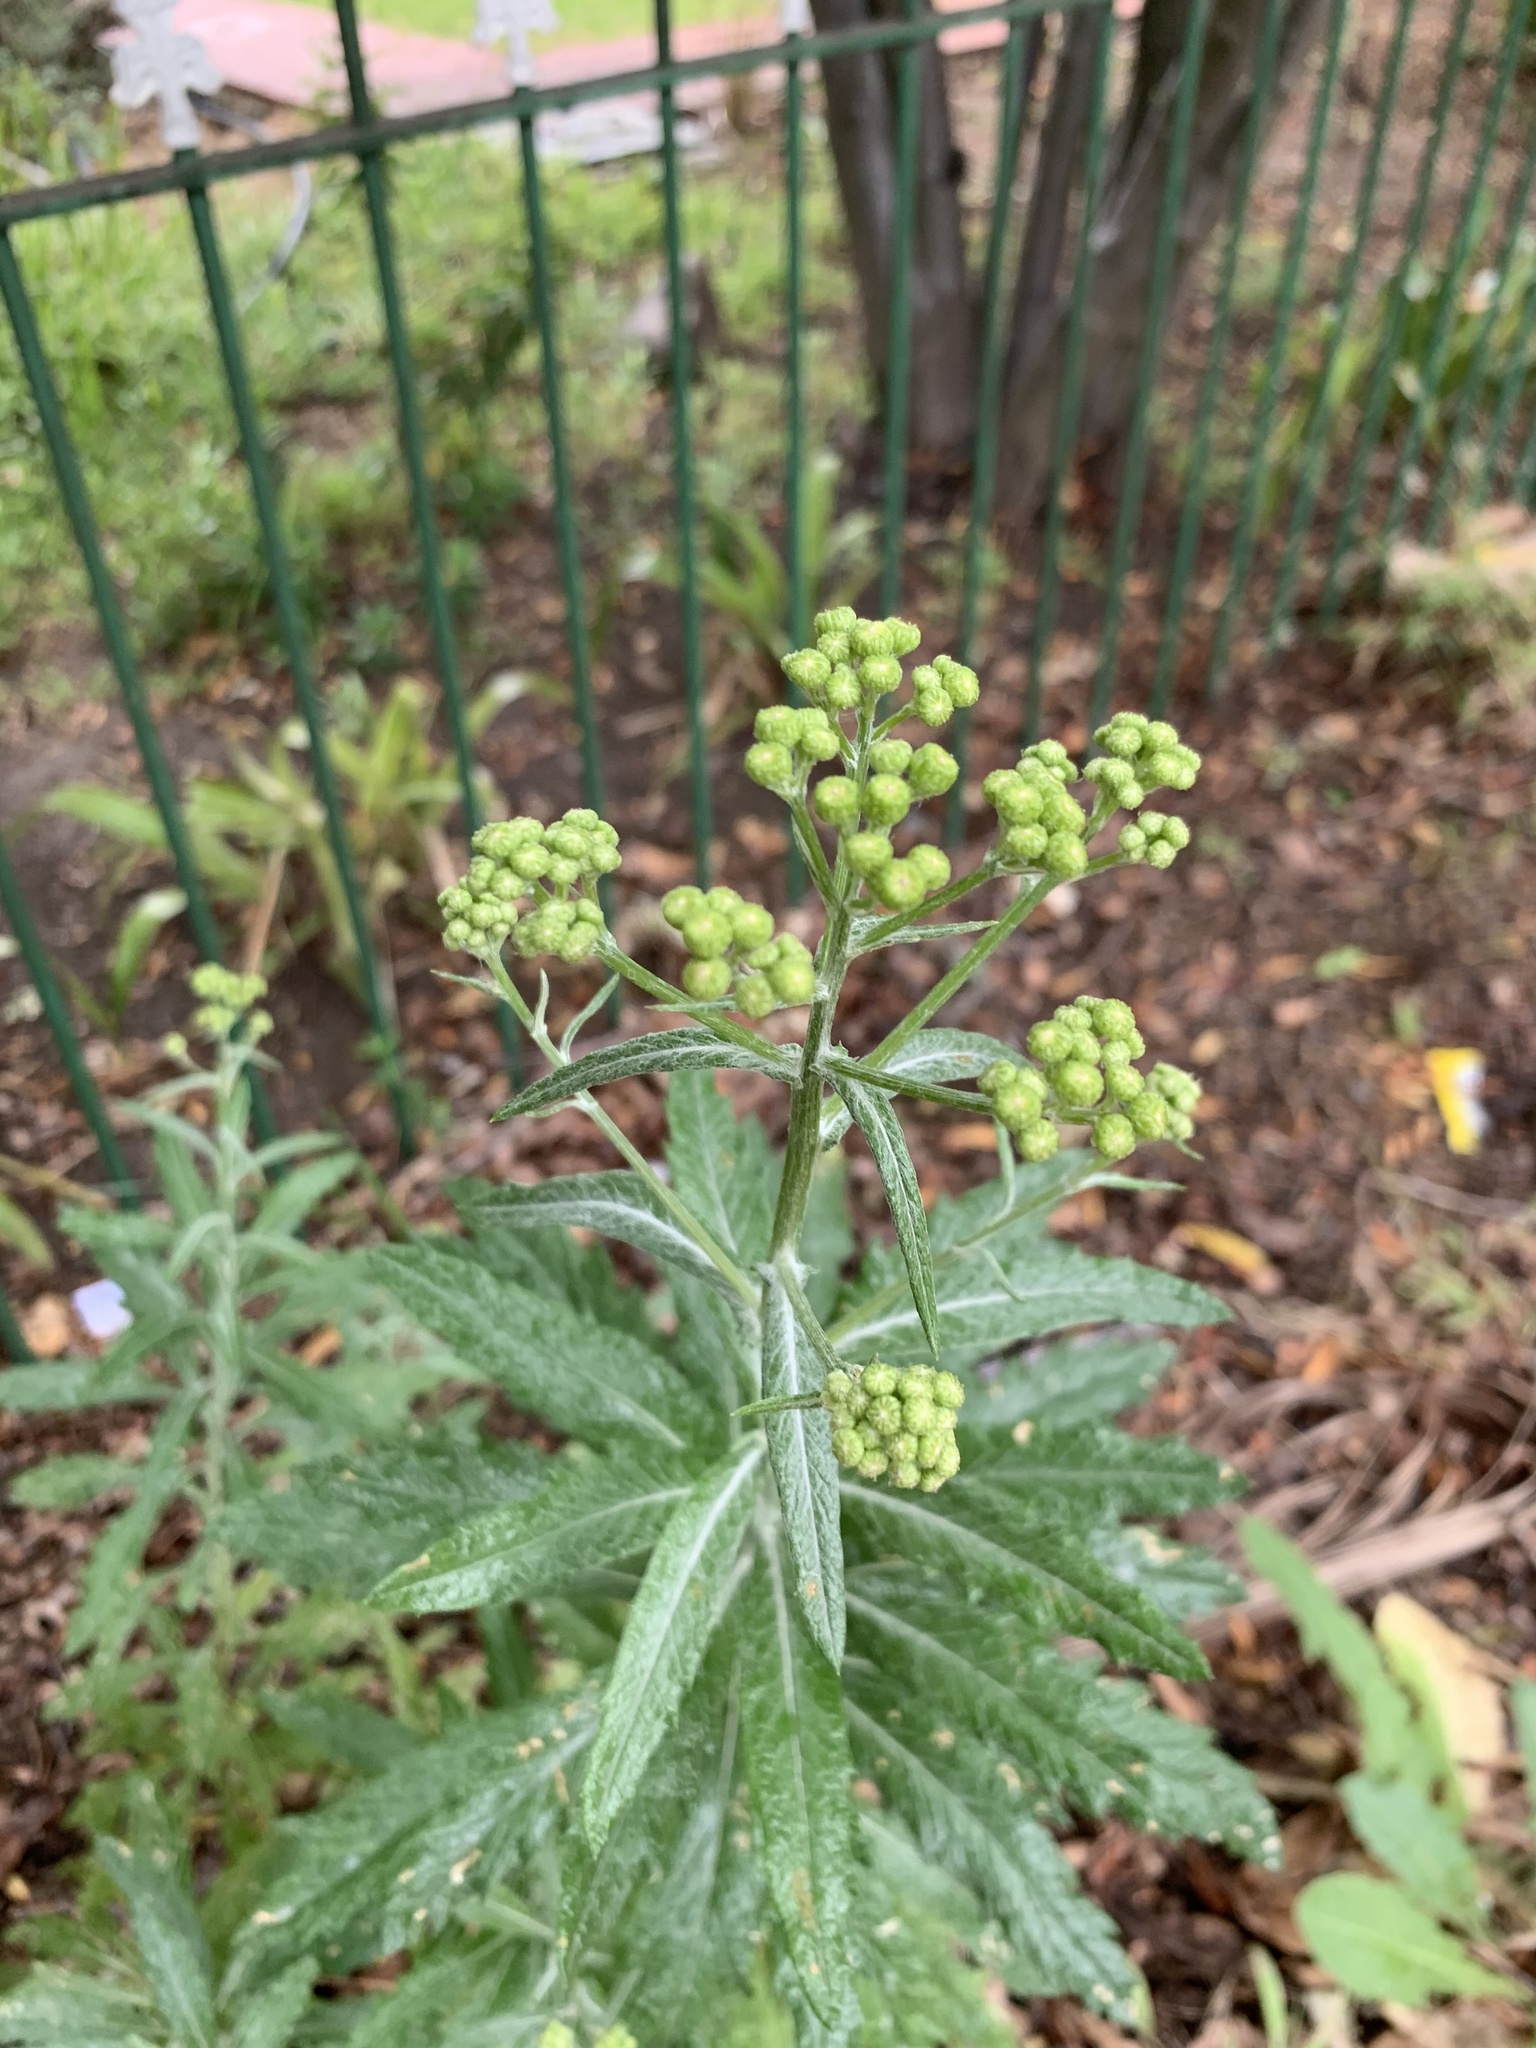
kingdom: Plantae
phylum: Tracheophyta
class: Magnoliopsida
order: Asterales
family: Asteraceae
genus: Senecio
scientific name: Senecio pterophorus
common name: Shoddy ragwort
